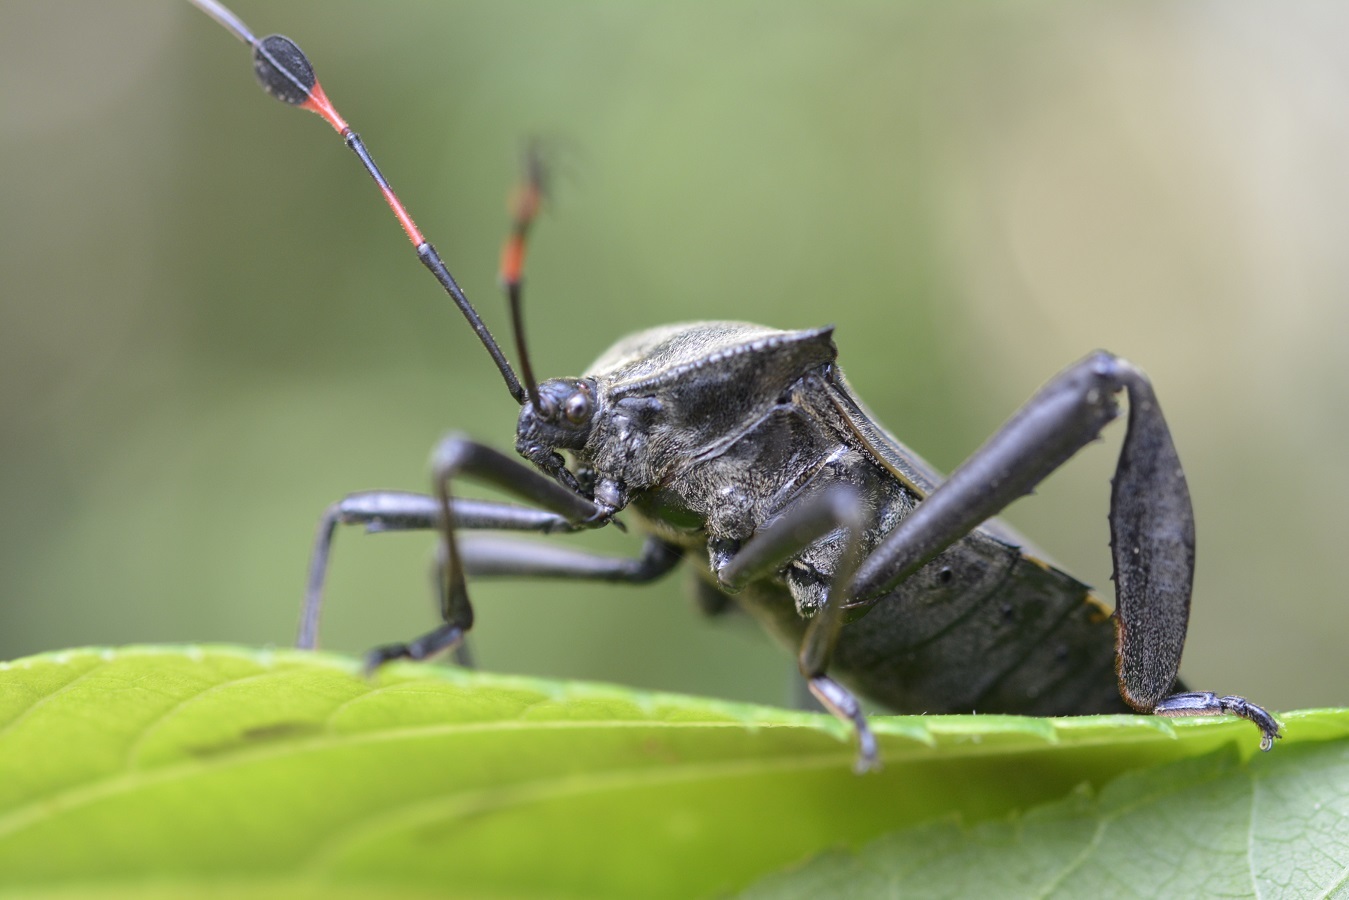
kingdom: Animalia
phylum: Arthropoda
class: Insecta
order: Hemiptera
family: Coreidae
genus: Thasus
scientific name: Thasus acutangulus
